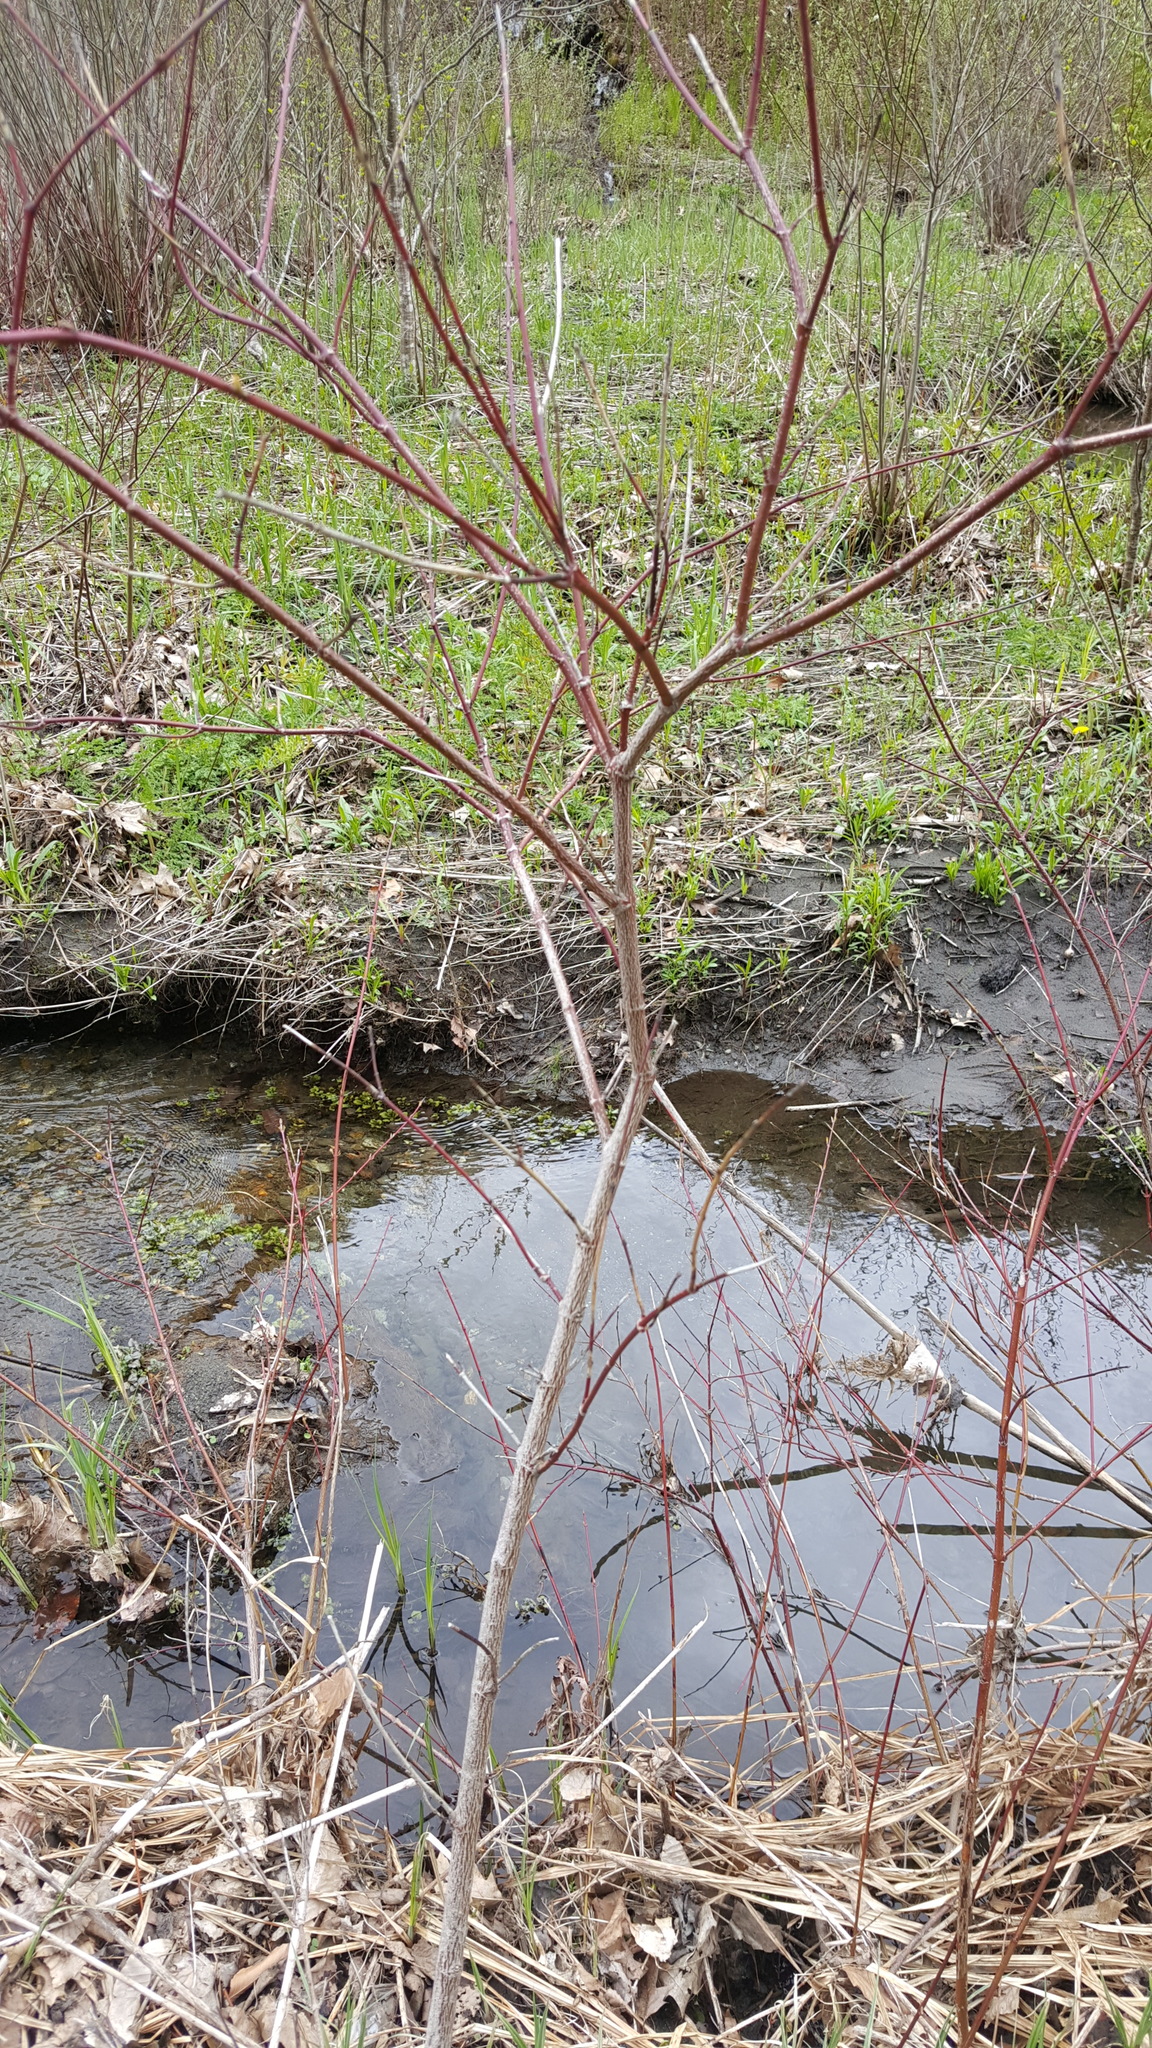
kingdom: Plantae
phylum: Tracheophyta
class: Magnoliopsida
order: Cornales
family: Cornaceae
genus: Cornus
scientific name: Cornus amomum
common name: Silky dogwood
